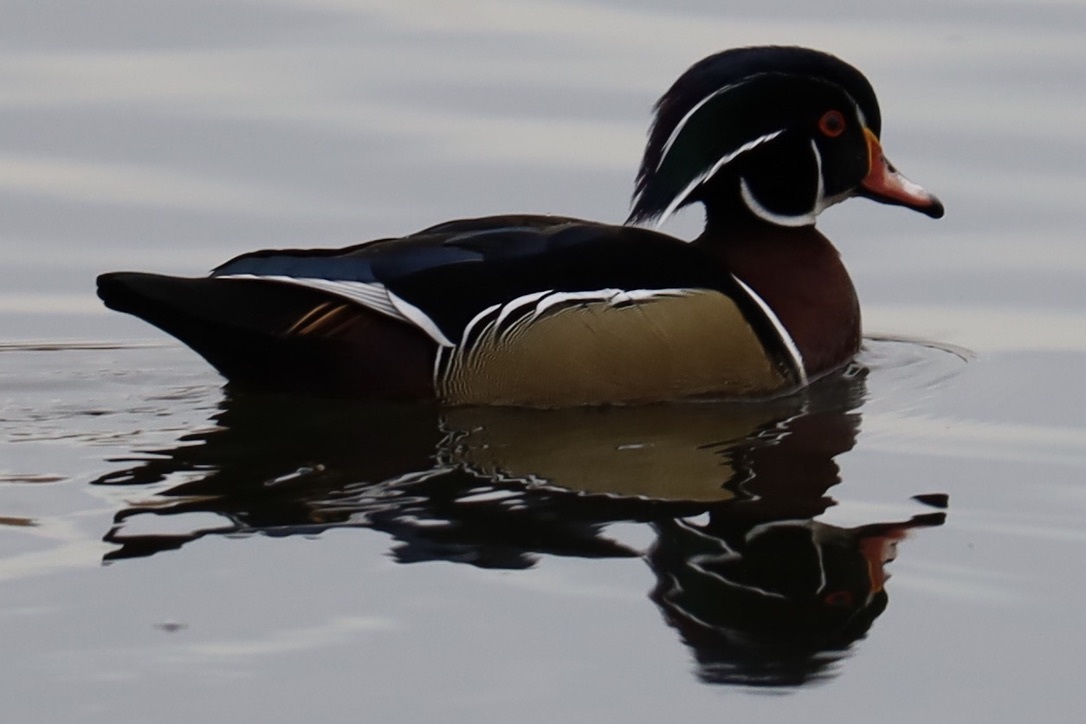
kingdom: Animalia
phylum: Chordata
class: Aves
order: Anseriformes
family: Anatidae
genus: Aix
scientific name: Aix sponsa
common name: Wood duck
